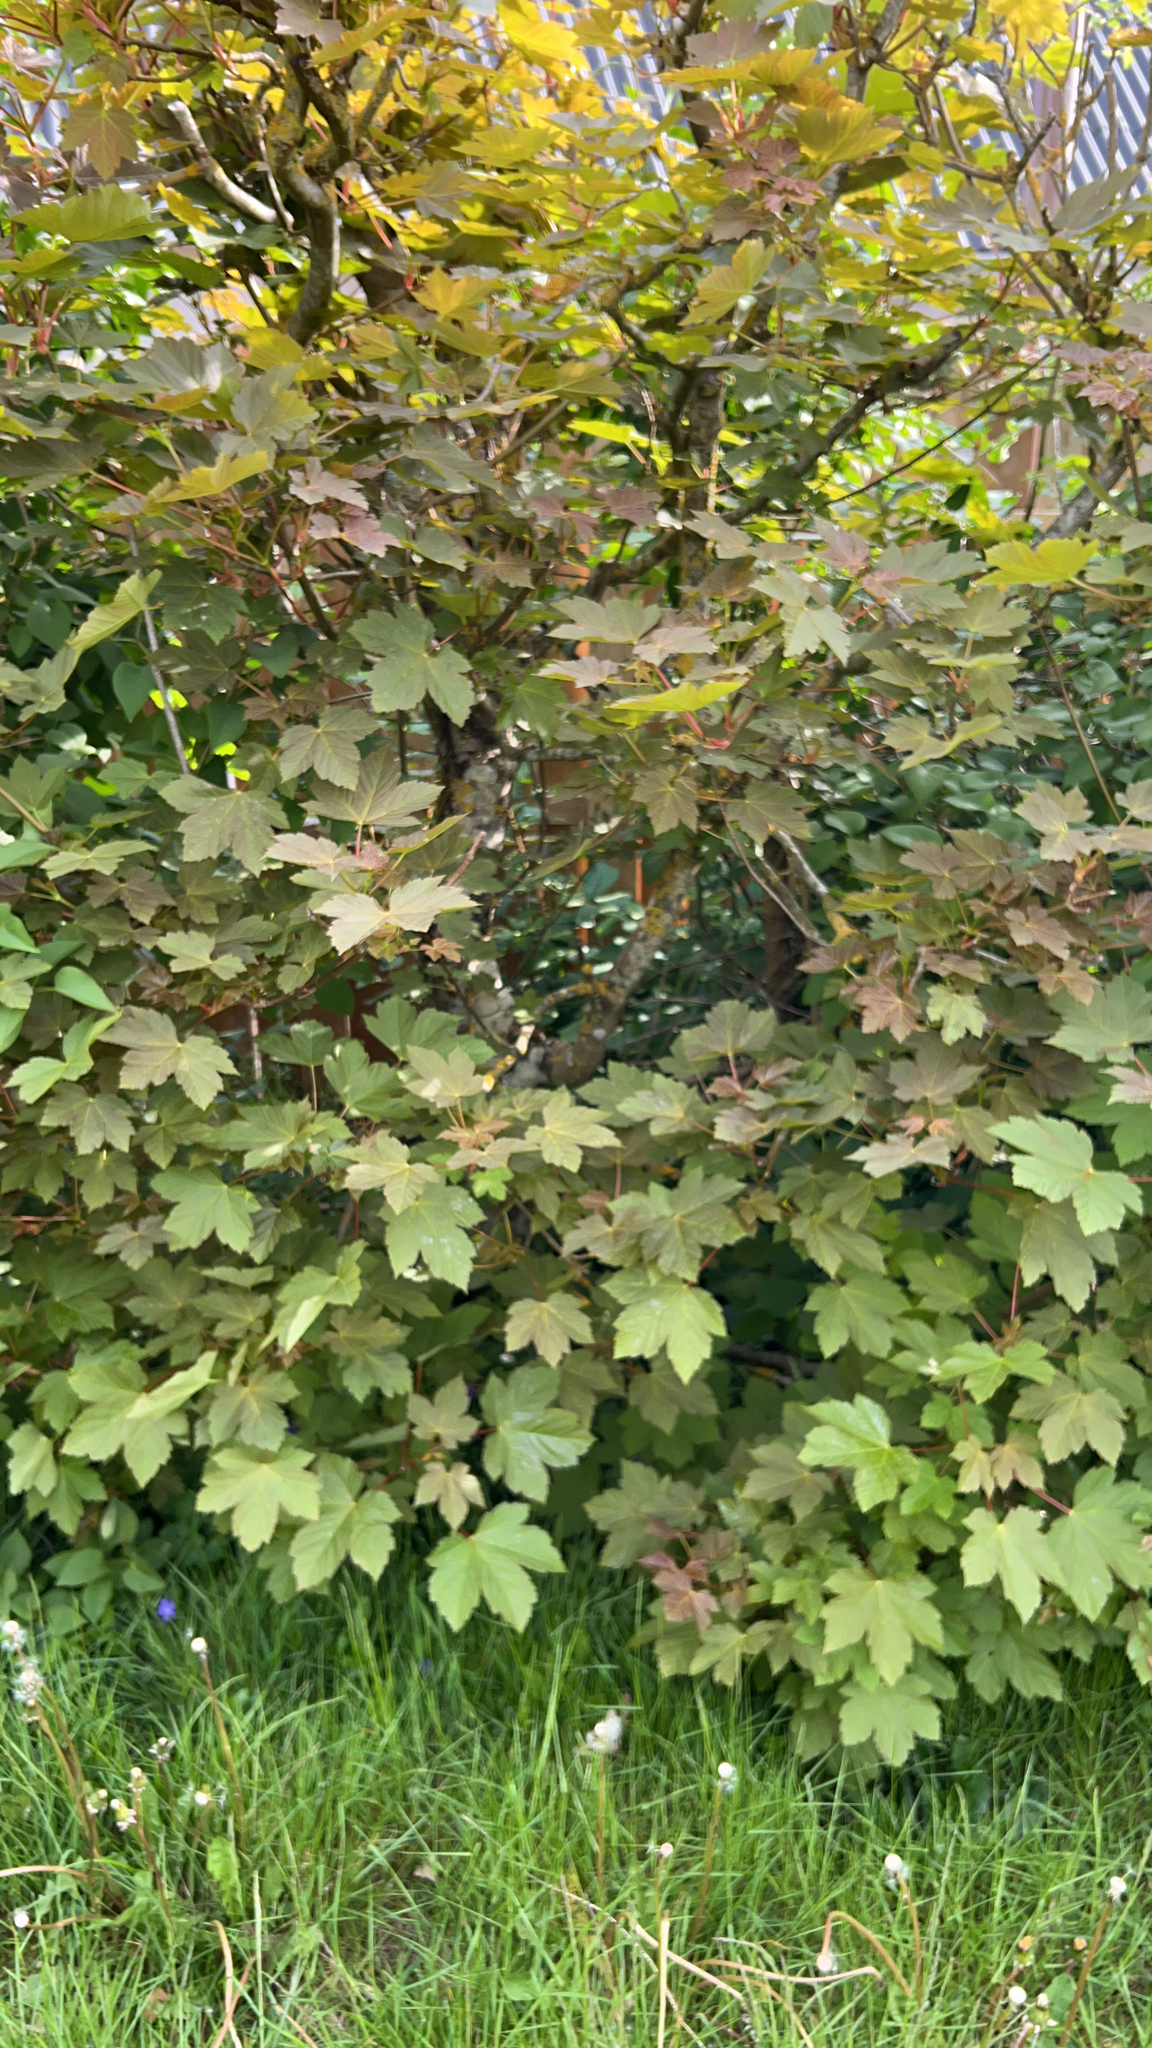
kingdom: Plantae
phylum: Tracheophyta
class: Magnoliopsida
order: Sapindales
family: Sapindaceae
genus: Acer
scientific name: Acer pseudoplatanus
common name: Sycamore
